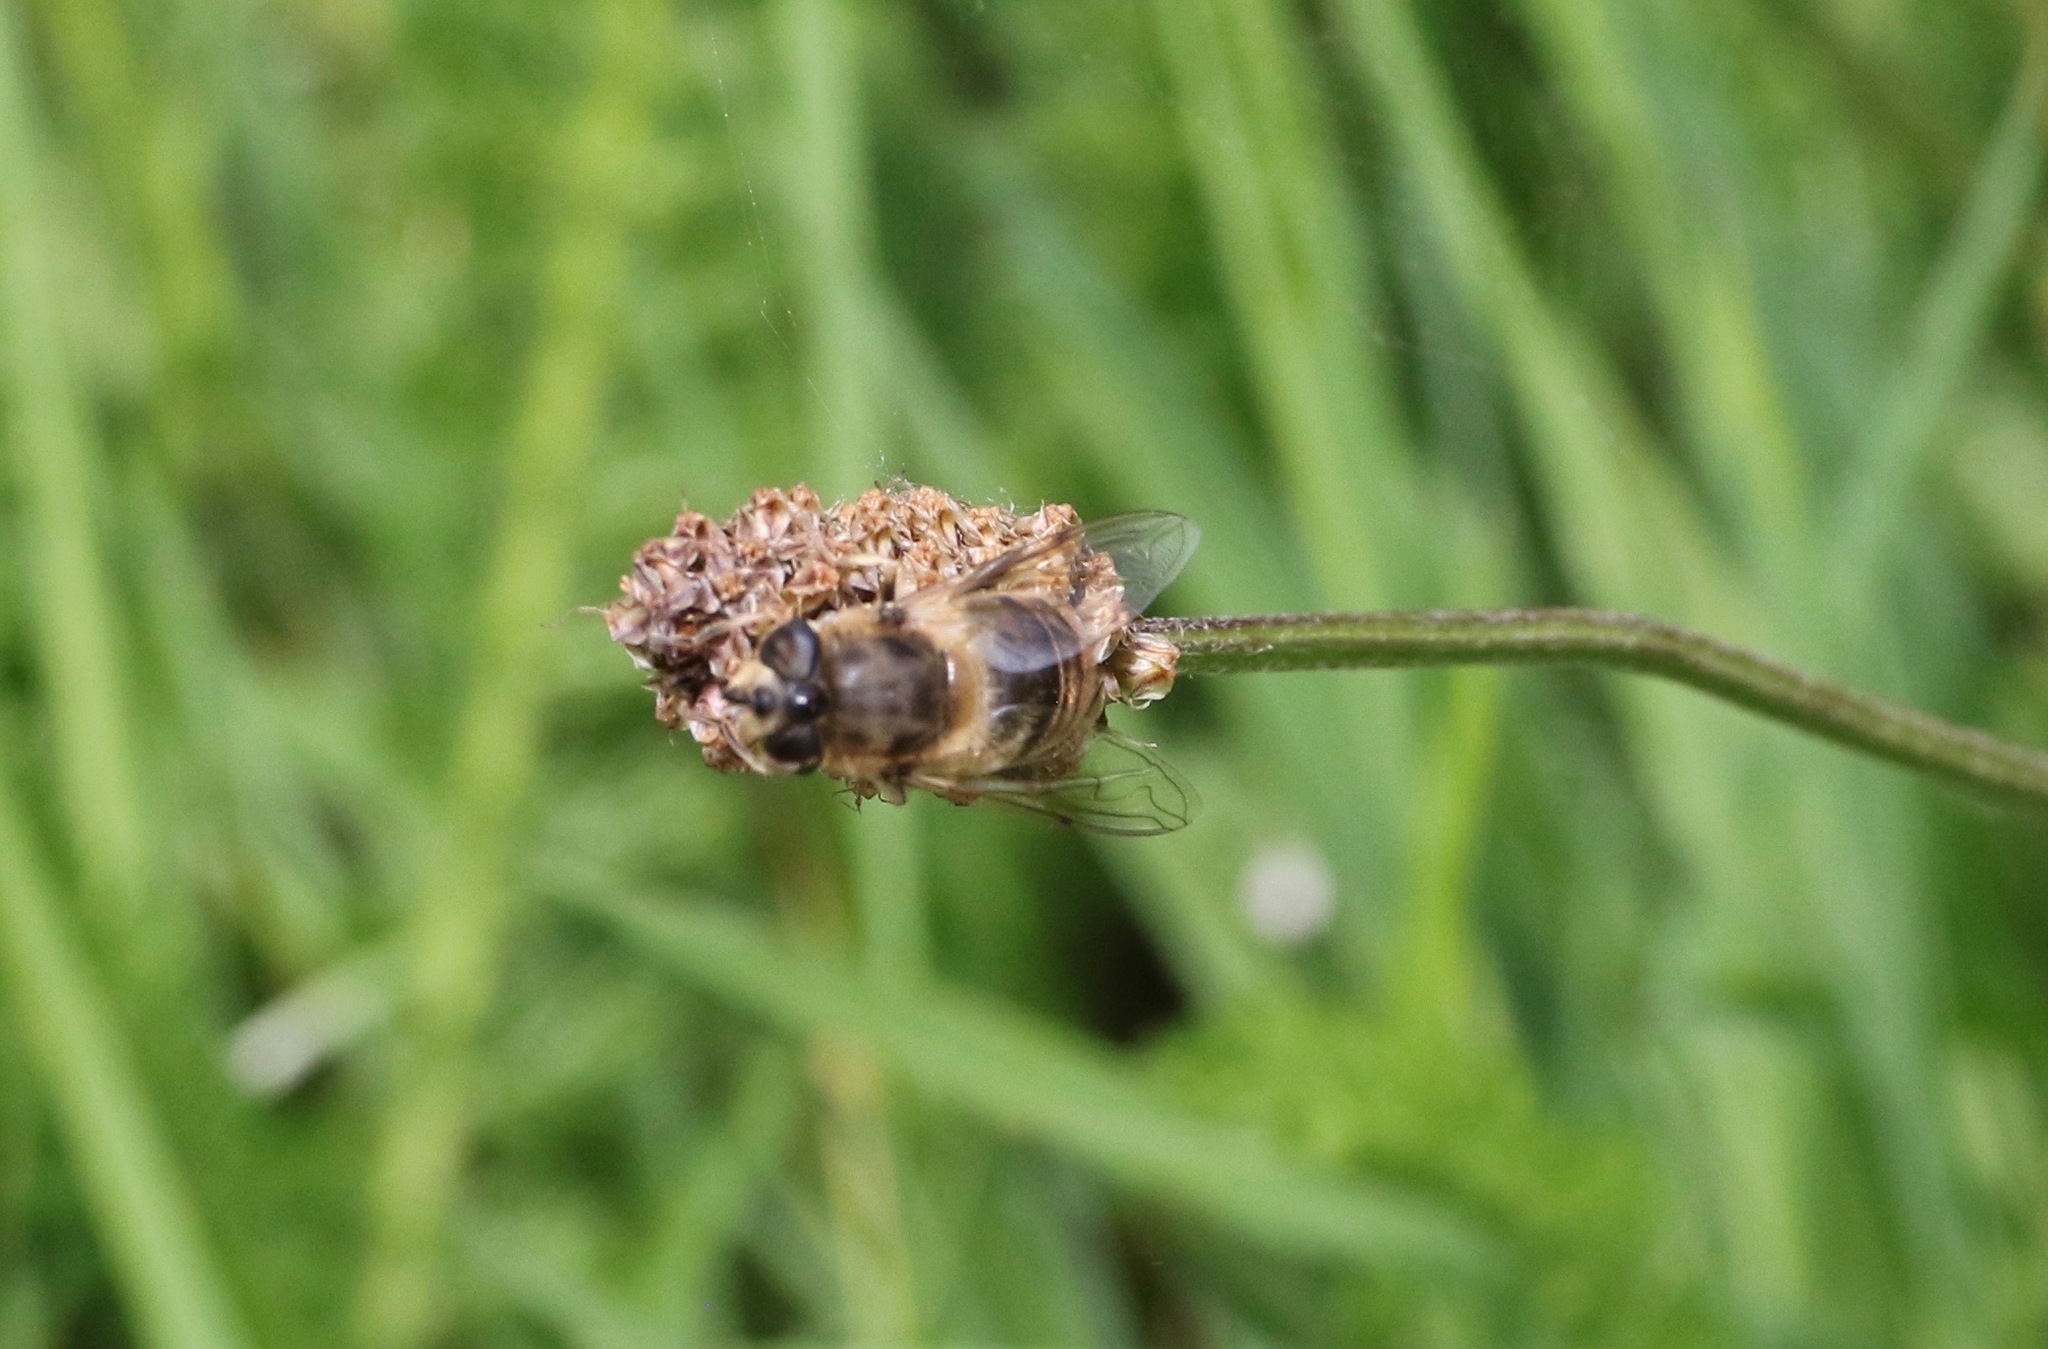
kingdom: Animalia
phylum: Arthropoda
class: Insecta
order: Diptera
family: Syrphidae
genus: Eristalis
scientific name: Eristalis tenax
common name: Drone fly
